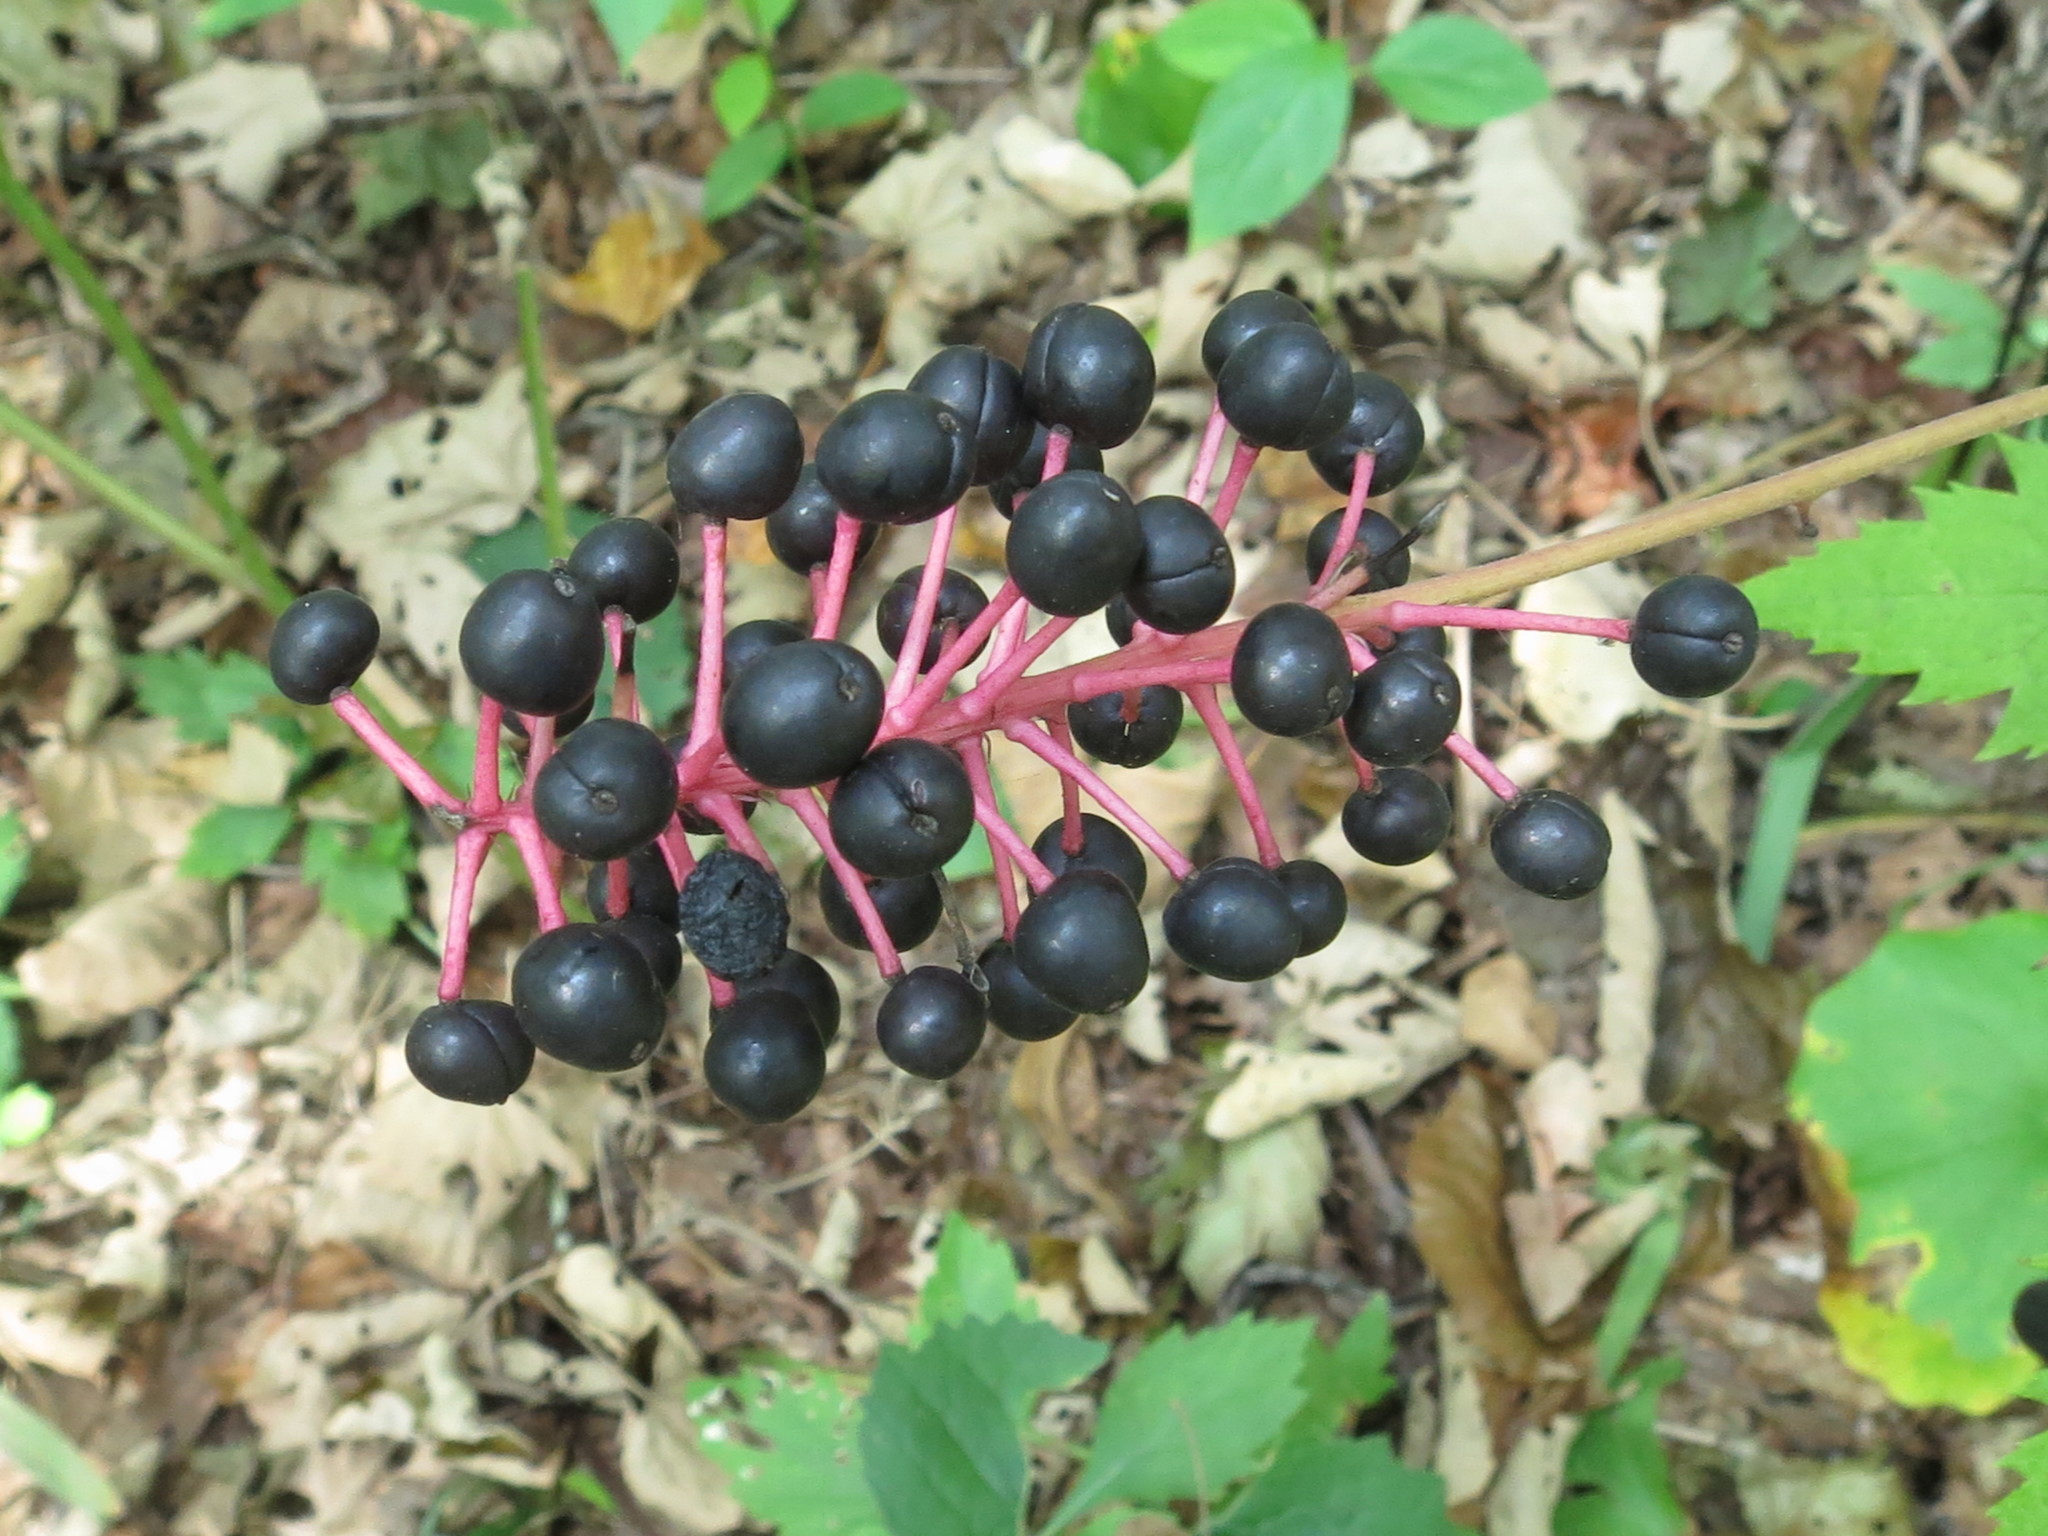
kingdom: Plantae
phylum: Tracheophyta
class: Magnoliopsida
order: Ranunculales
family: Ranunculaceae
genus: Actaea
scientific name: Actaea asiatica
